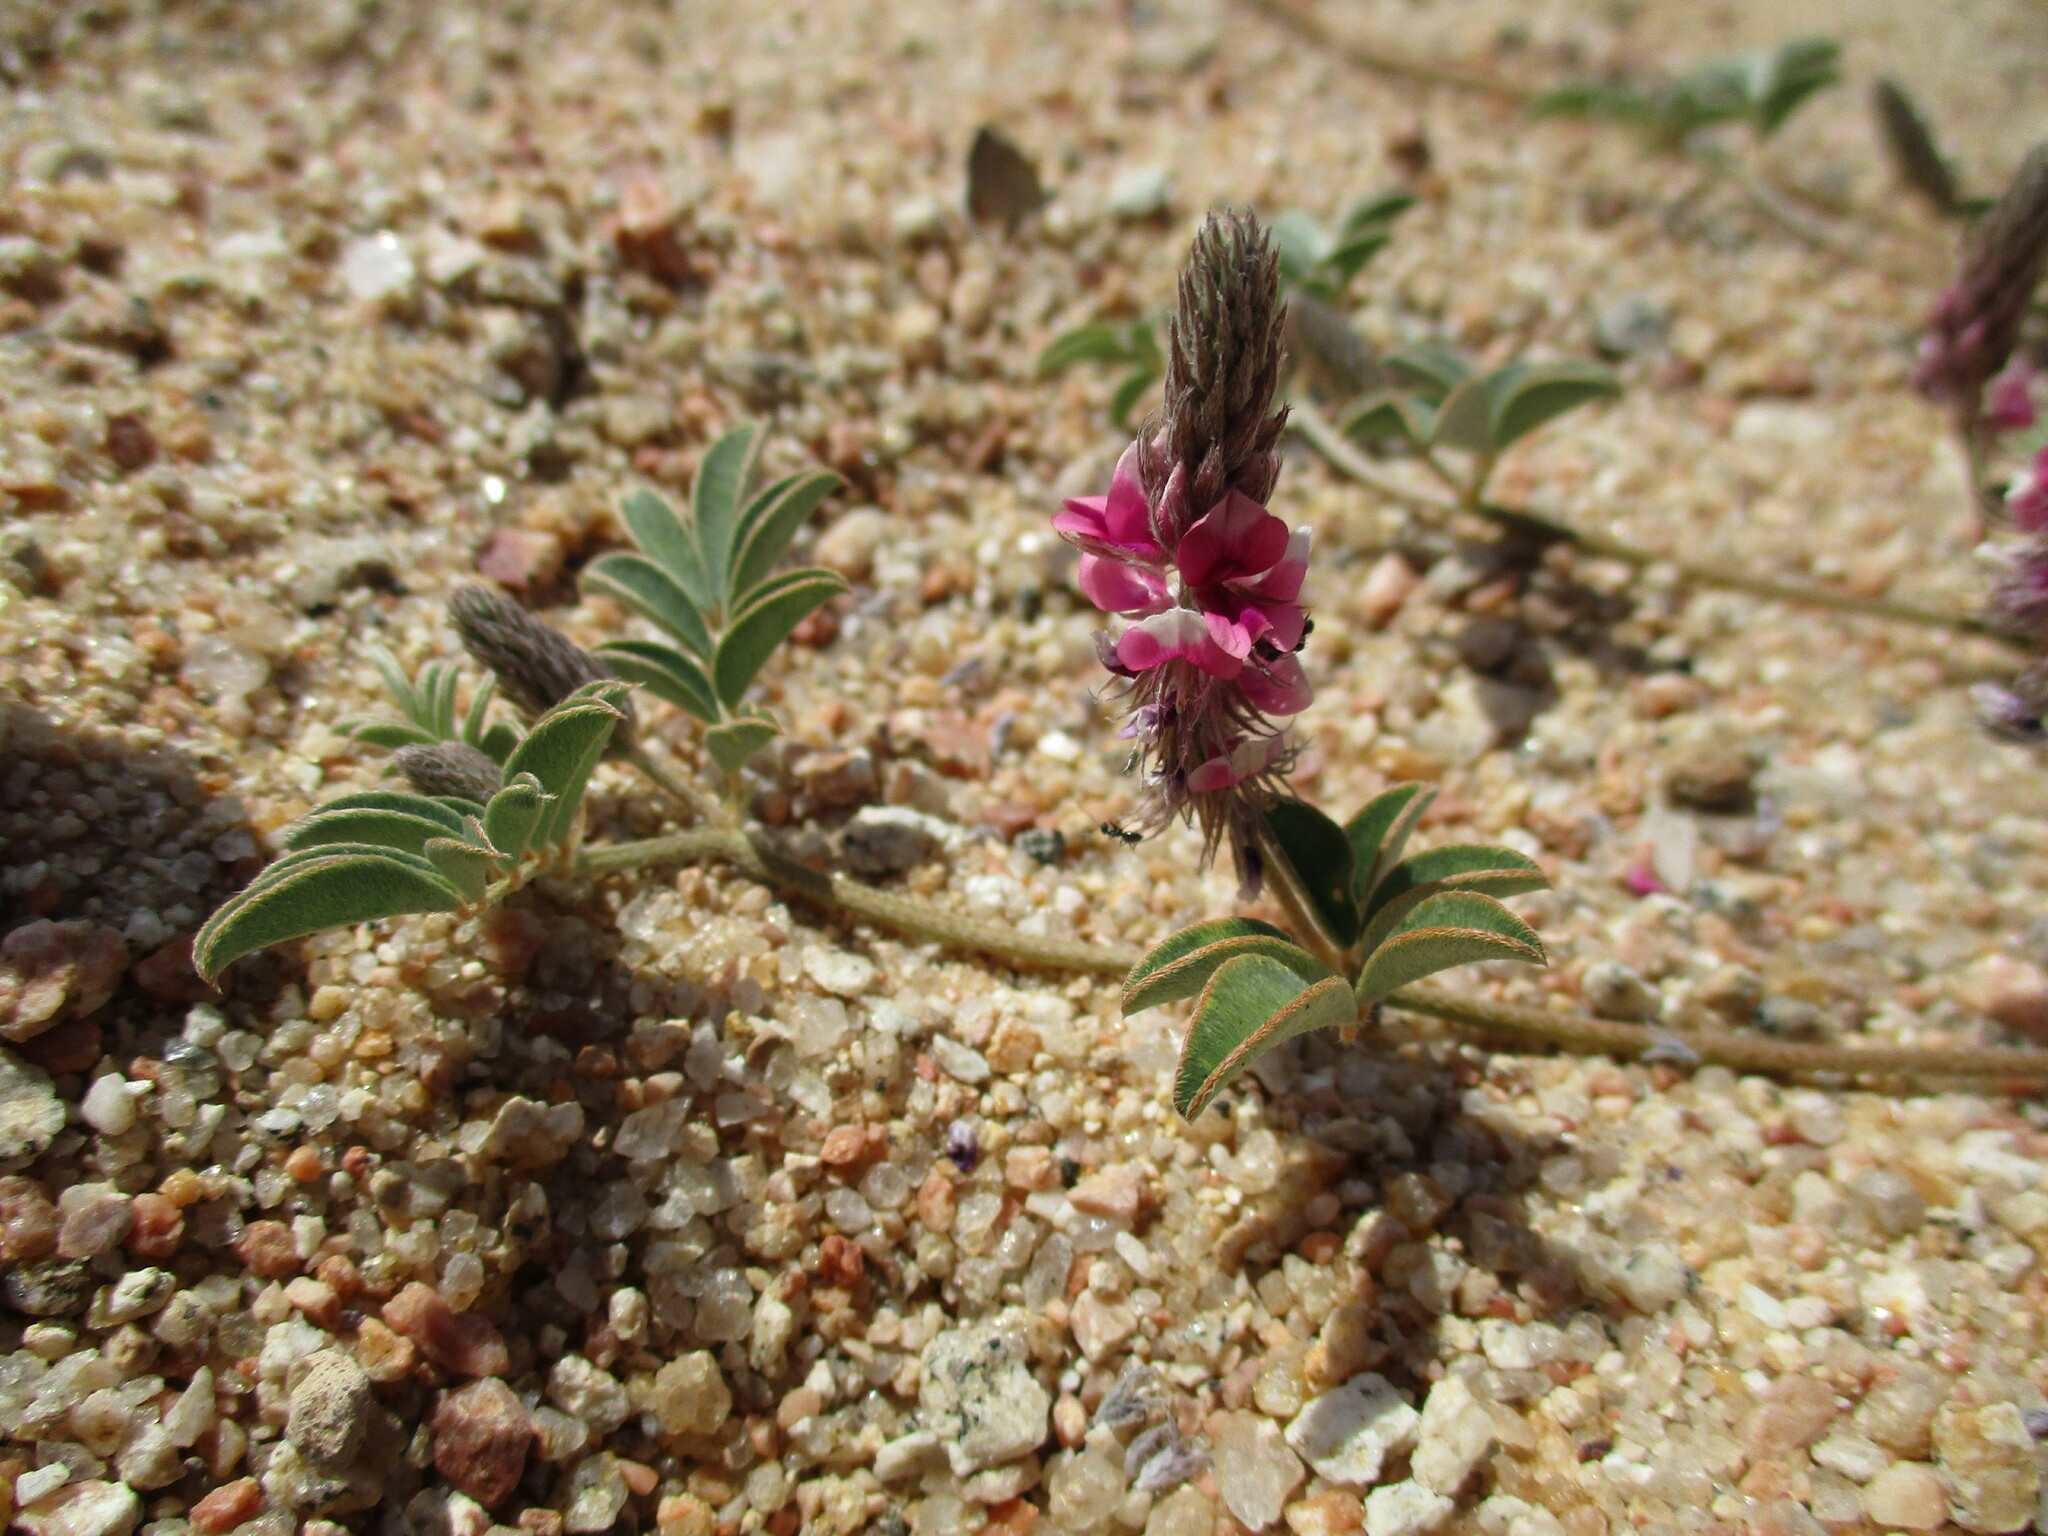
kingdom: Plantae
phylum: Tracheophyta
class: Magnoliopsida
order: Fabales
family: Fabaceae
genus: Indigofera
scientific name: Indigofera auricoma
